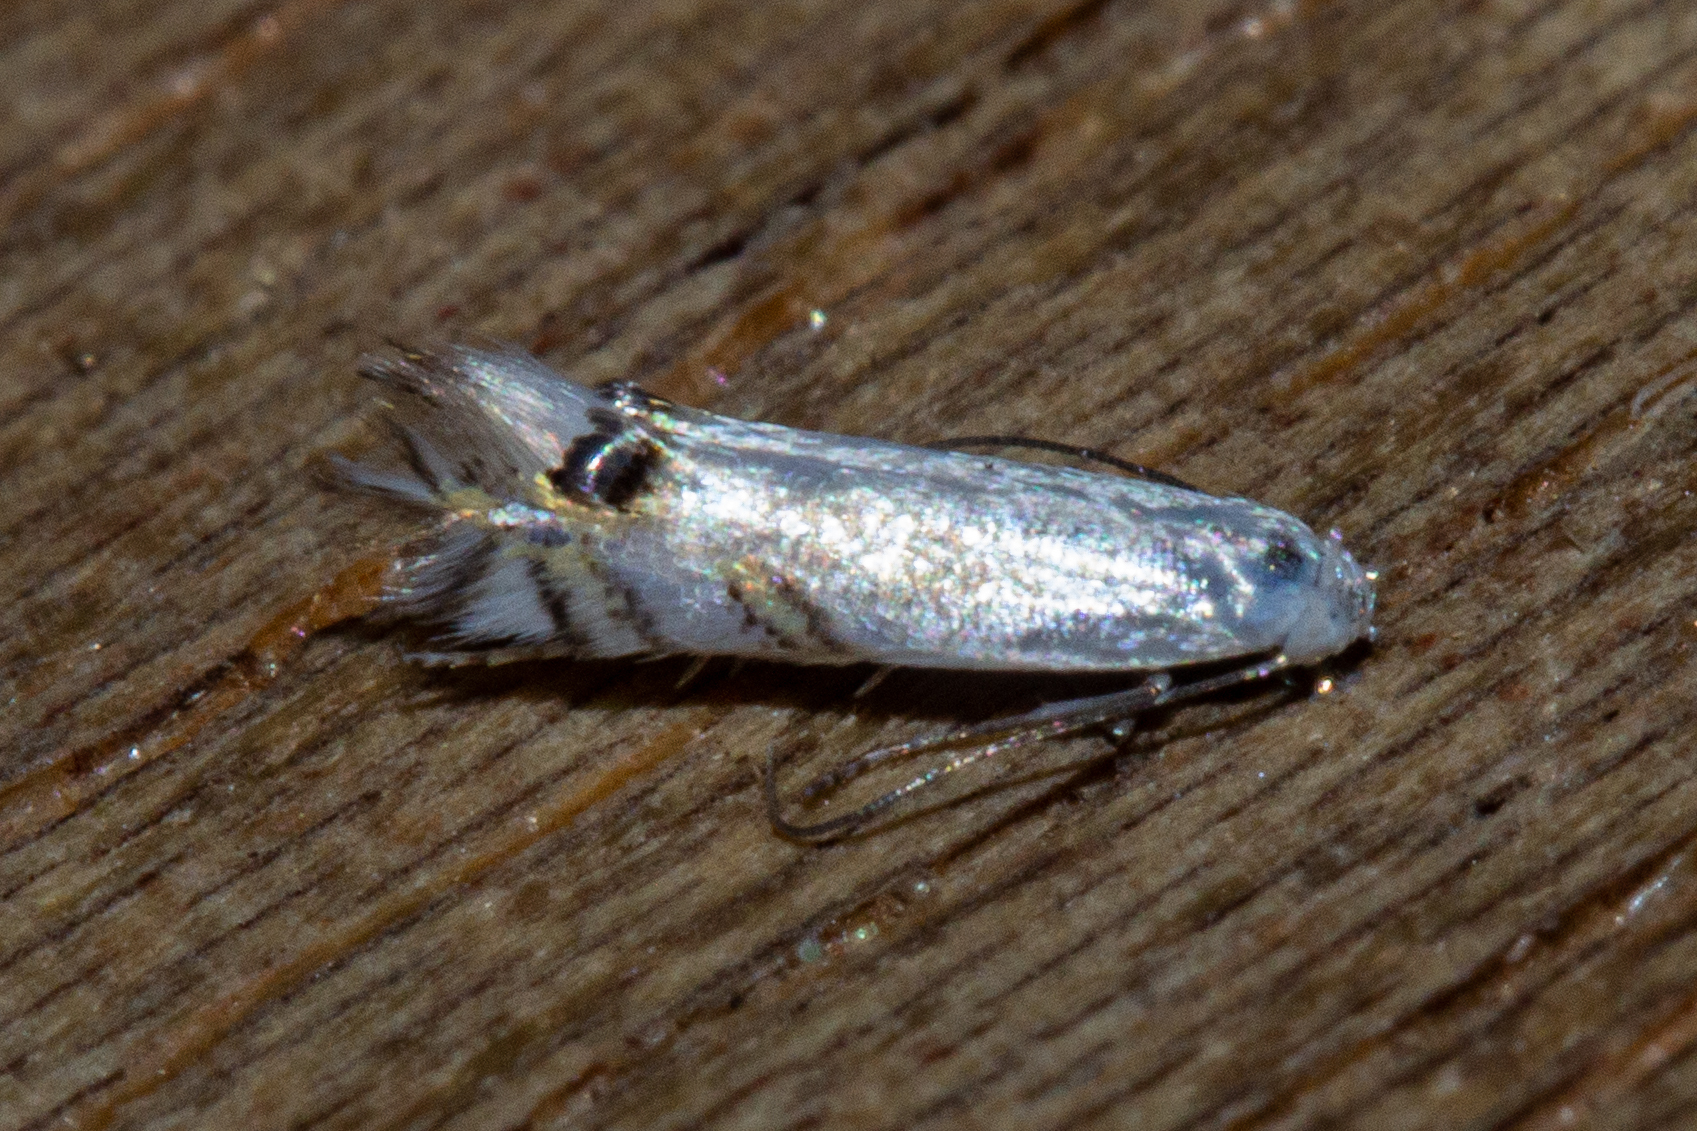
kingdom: Animalia
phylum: Arthropoda
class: Insecta
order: Lepidoptera
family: Lyonetiidae
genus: Leucoptera
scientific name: Leucoptera spartifoliella
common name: Scotch broom twig miner
